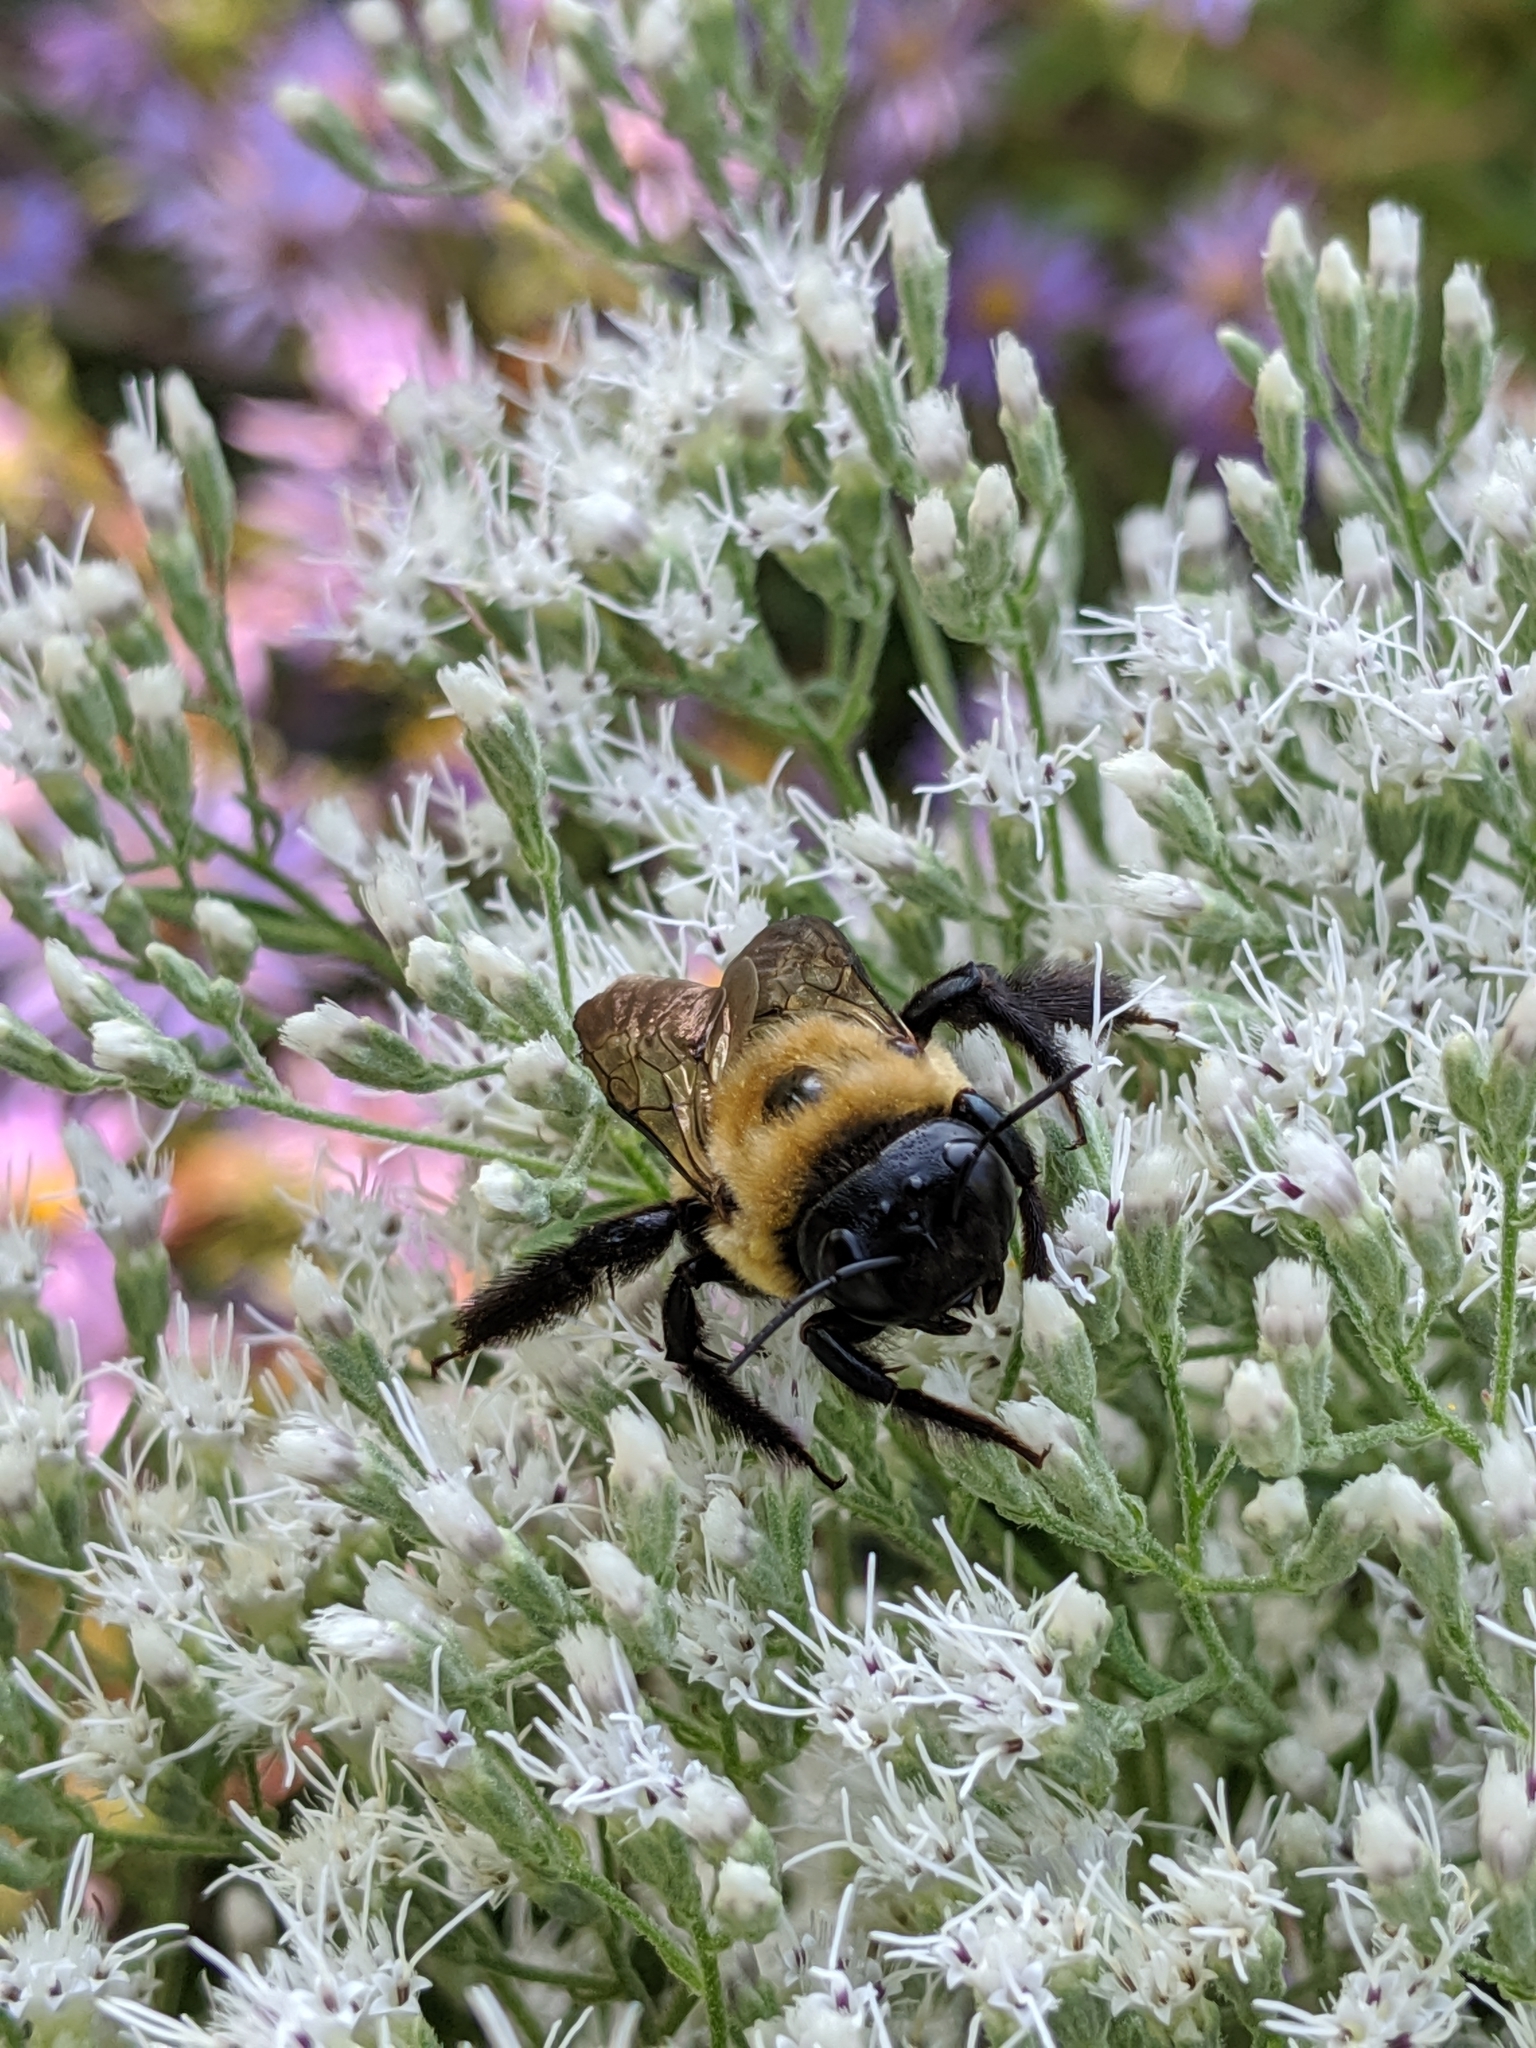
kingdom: Animalia
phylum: Arthropoda
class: Insecta
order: Hymenoptera
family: Apidae
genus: Xylocopa
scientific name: Xylocopa virginica
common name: Carpenter bee
